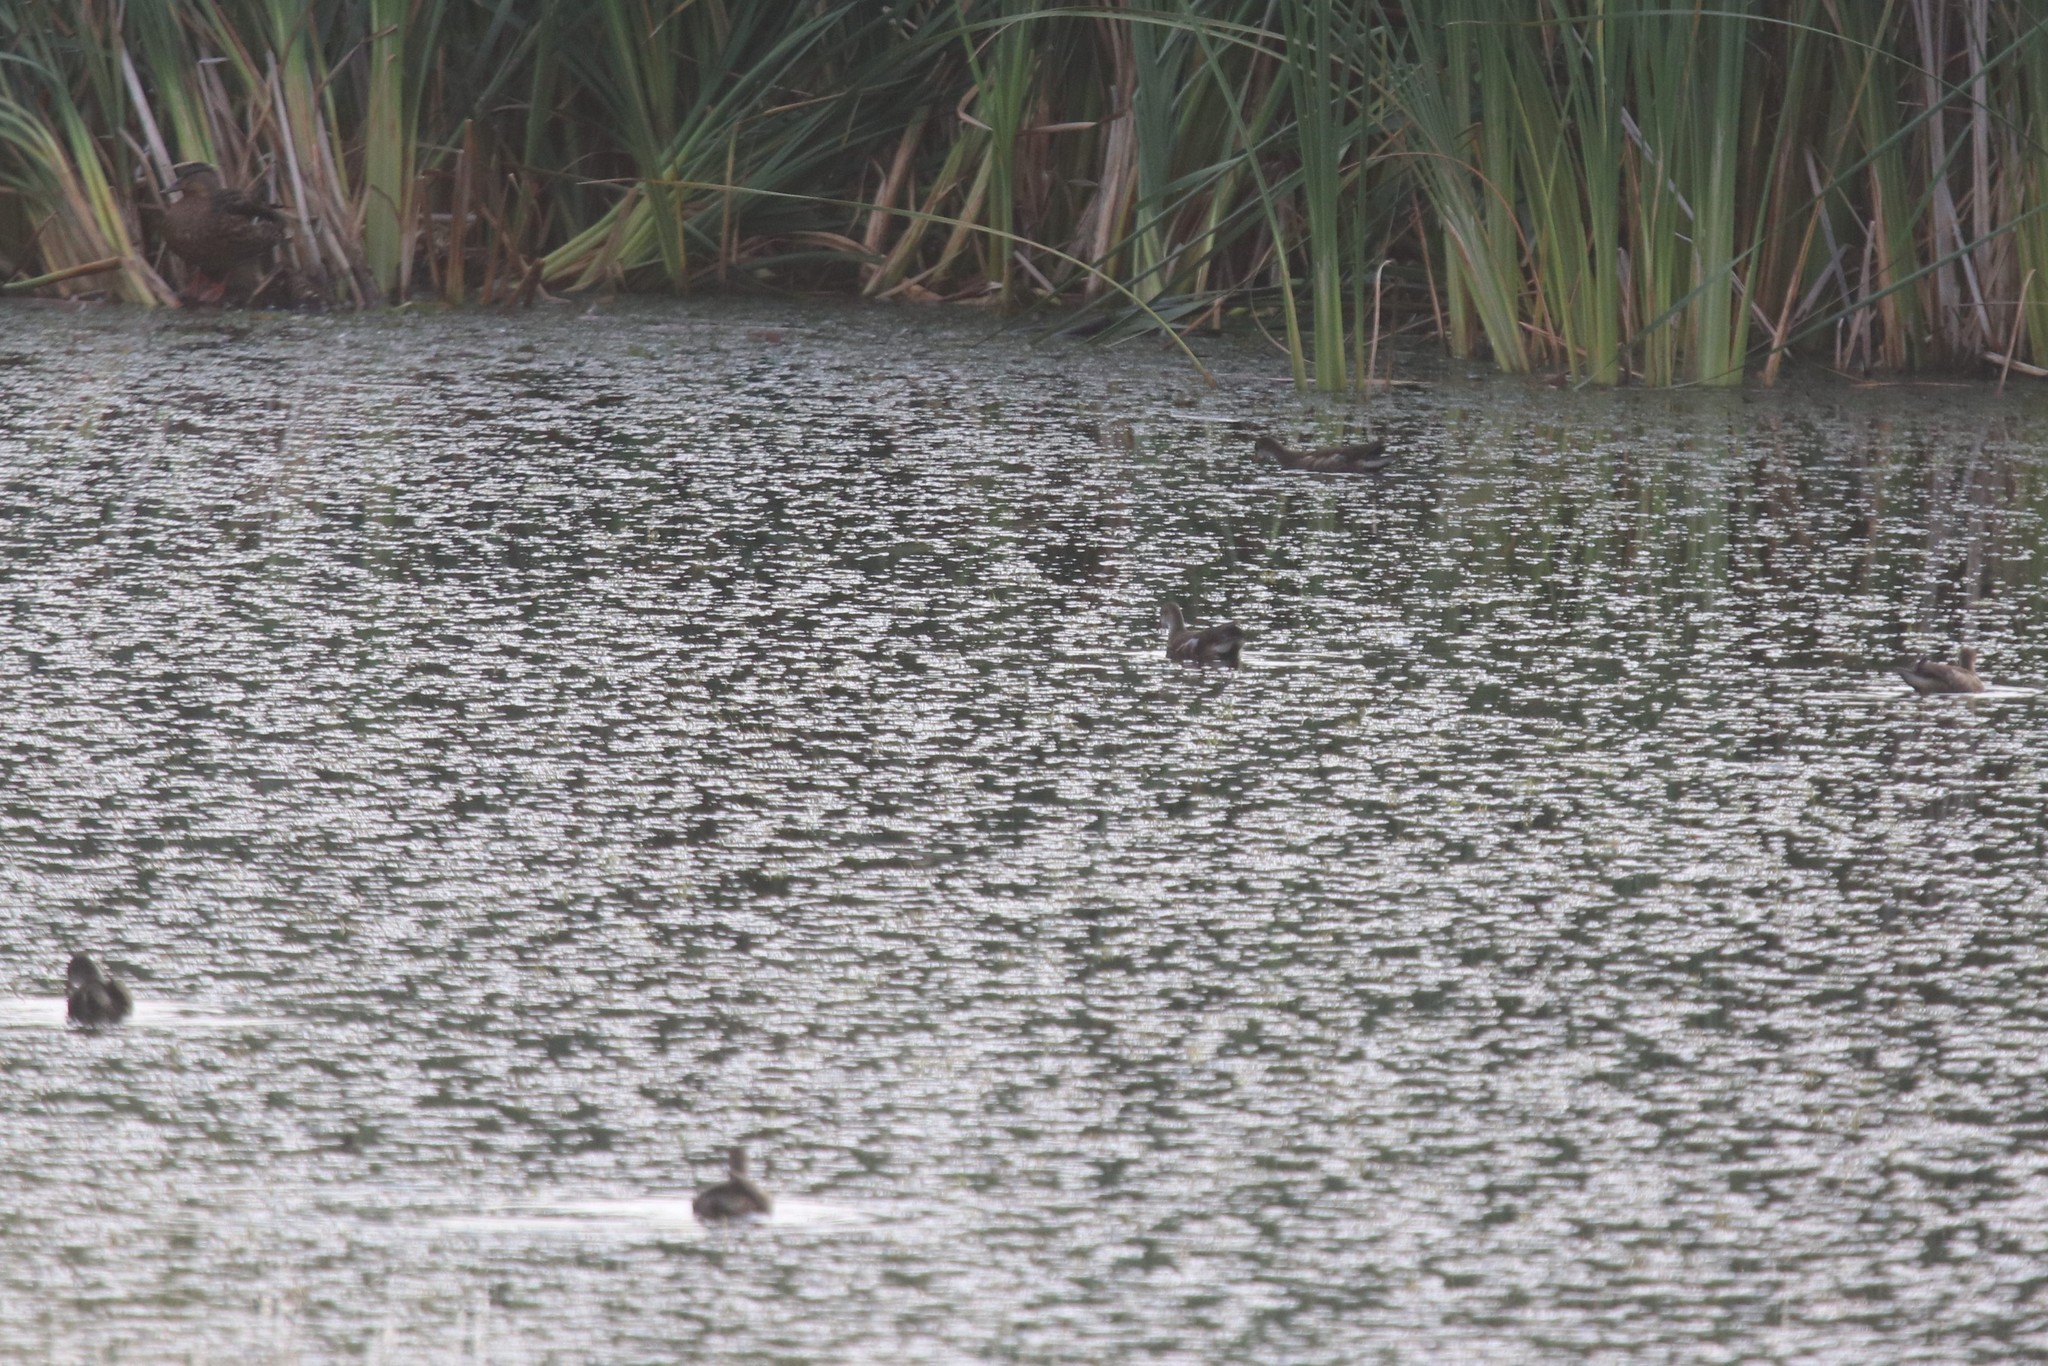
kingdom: Animalia
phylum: Chordata
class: Aves
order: Gruiformes
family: Rallidae
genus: Gallinula
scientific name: Gallinula chloropus
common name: Common moorhen
